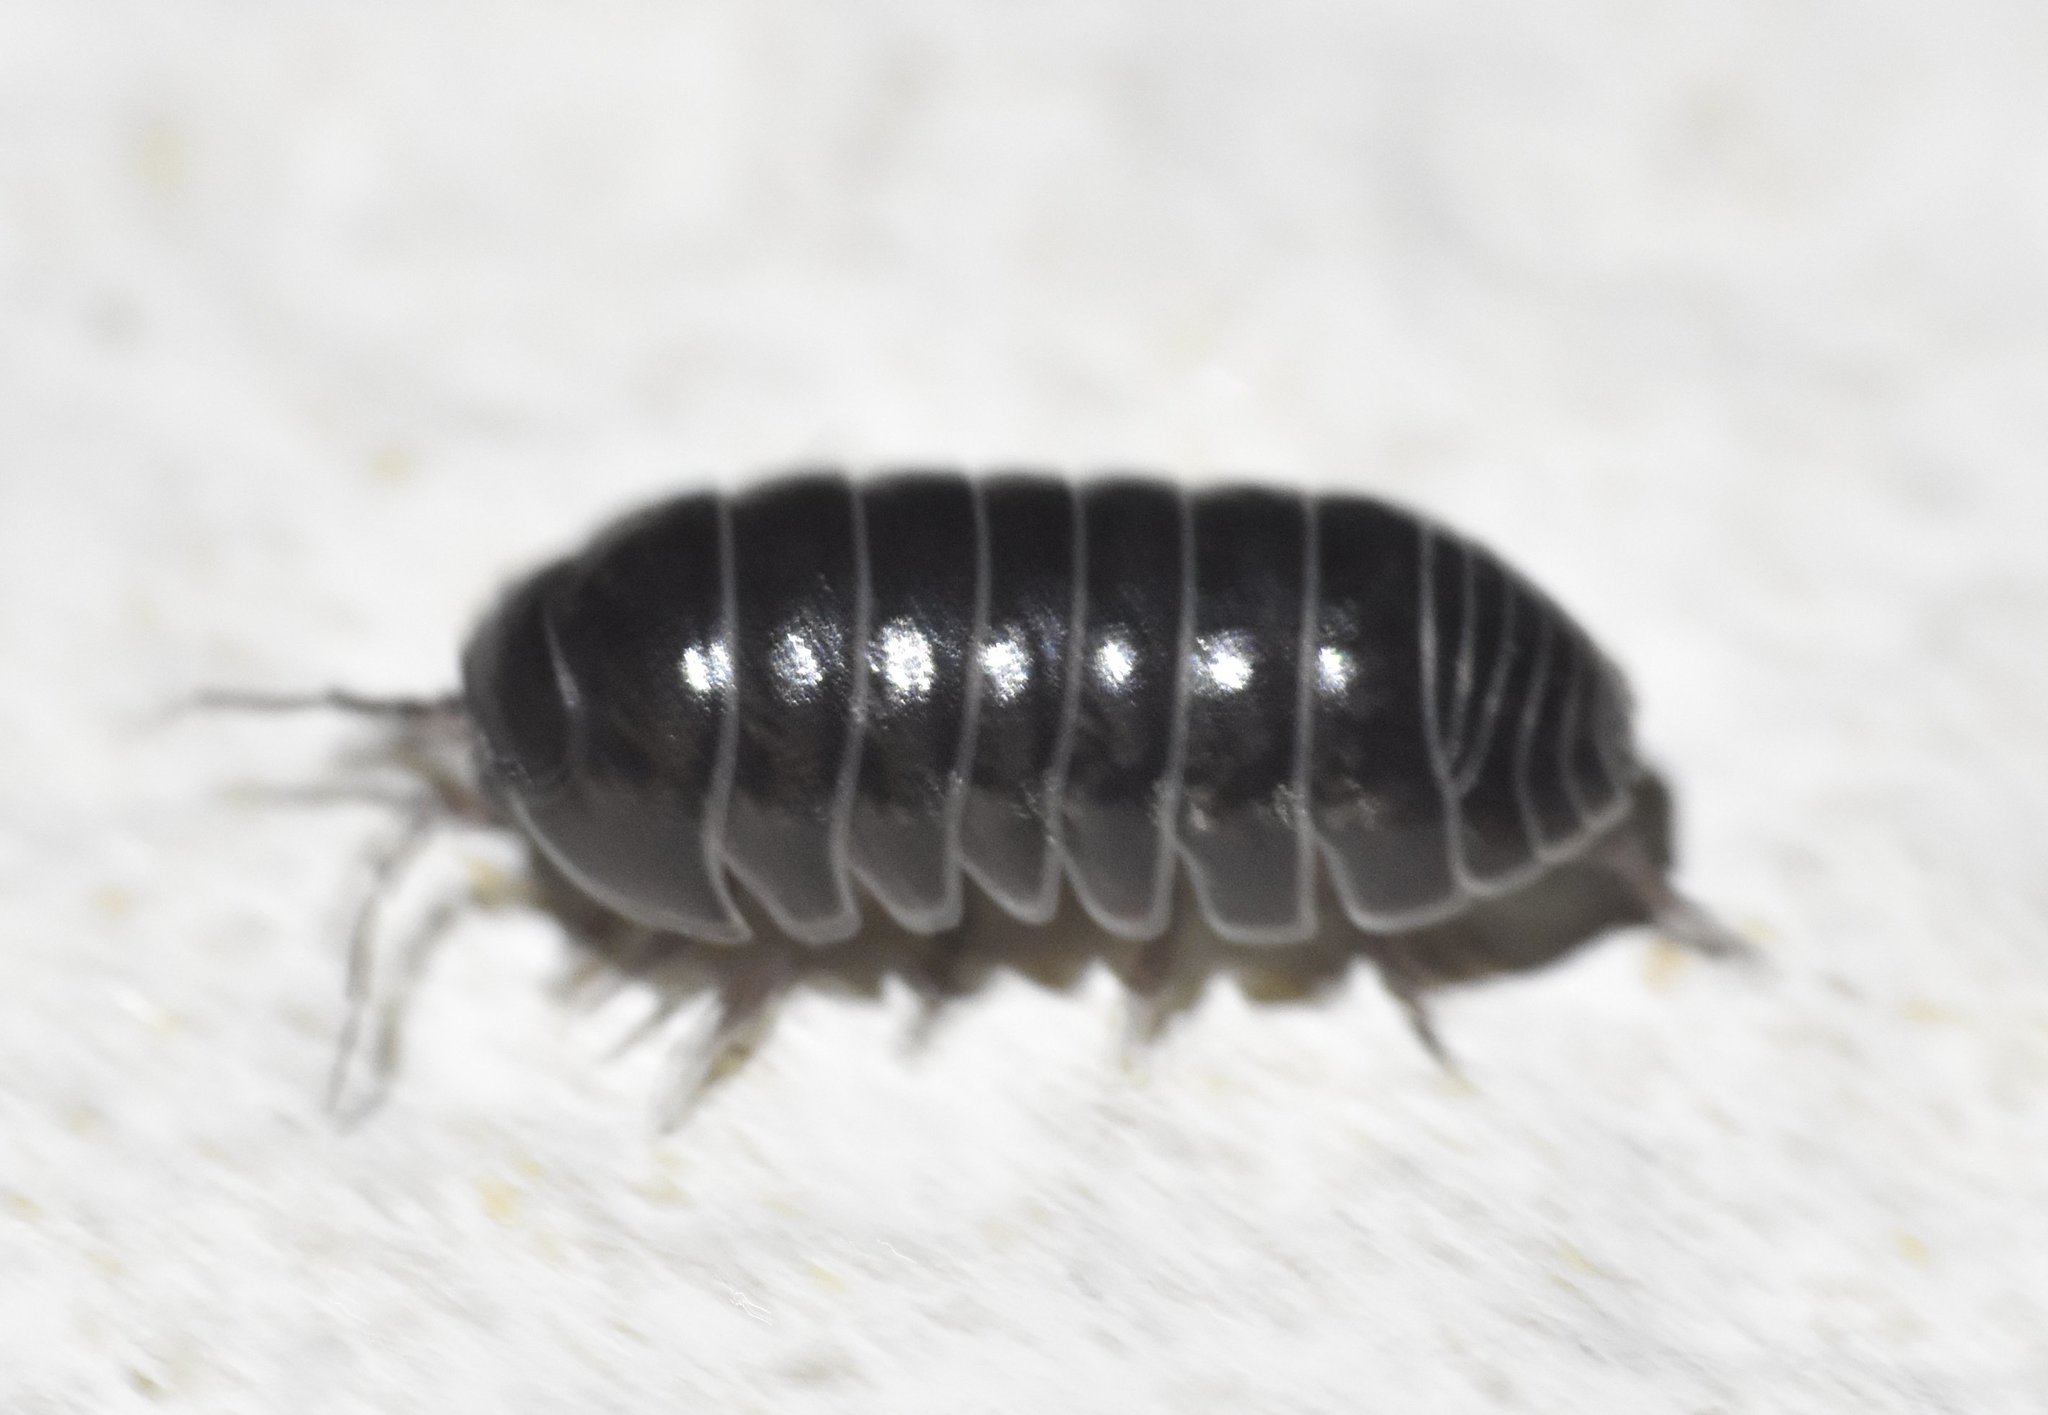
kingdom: Animalia
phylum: Arthropoda
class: Malacostraca
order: Isopoda
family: Armadillidiidae
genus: Armadillidium
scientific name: Armadillidium vulgare
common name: Common pill woodlouse
